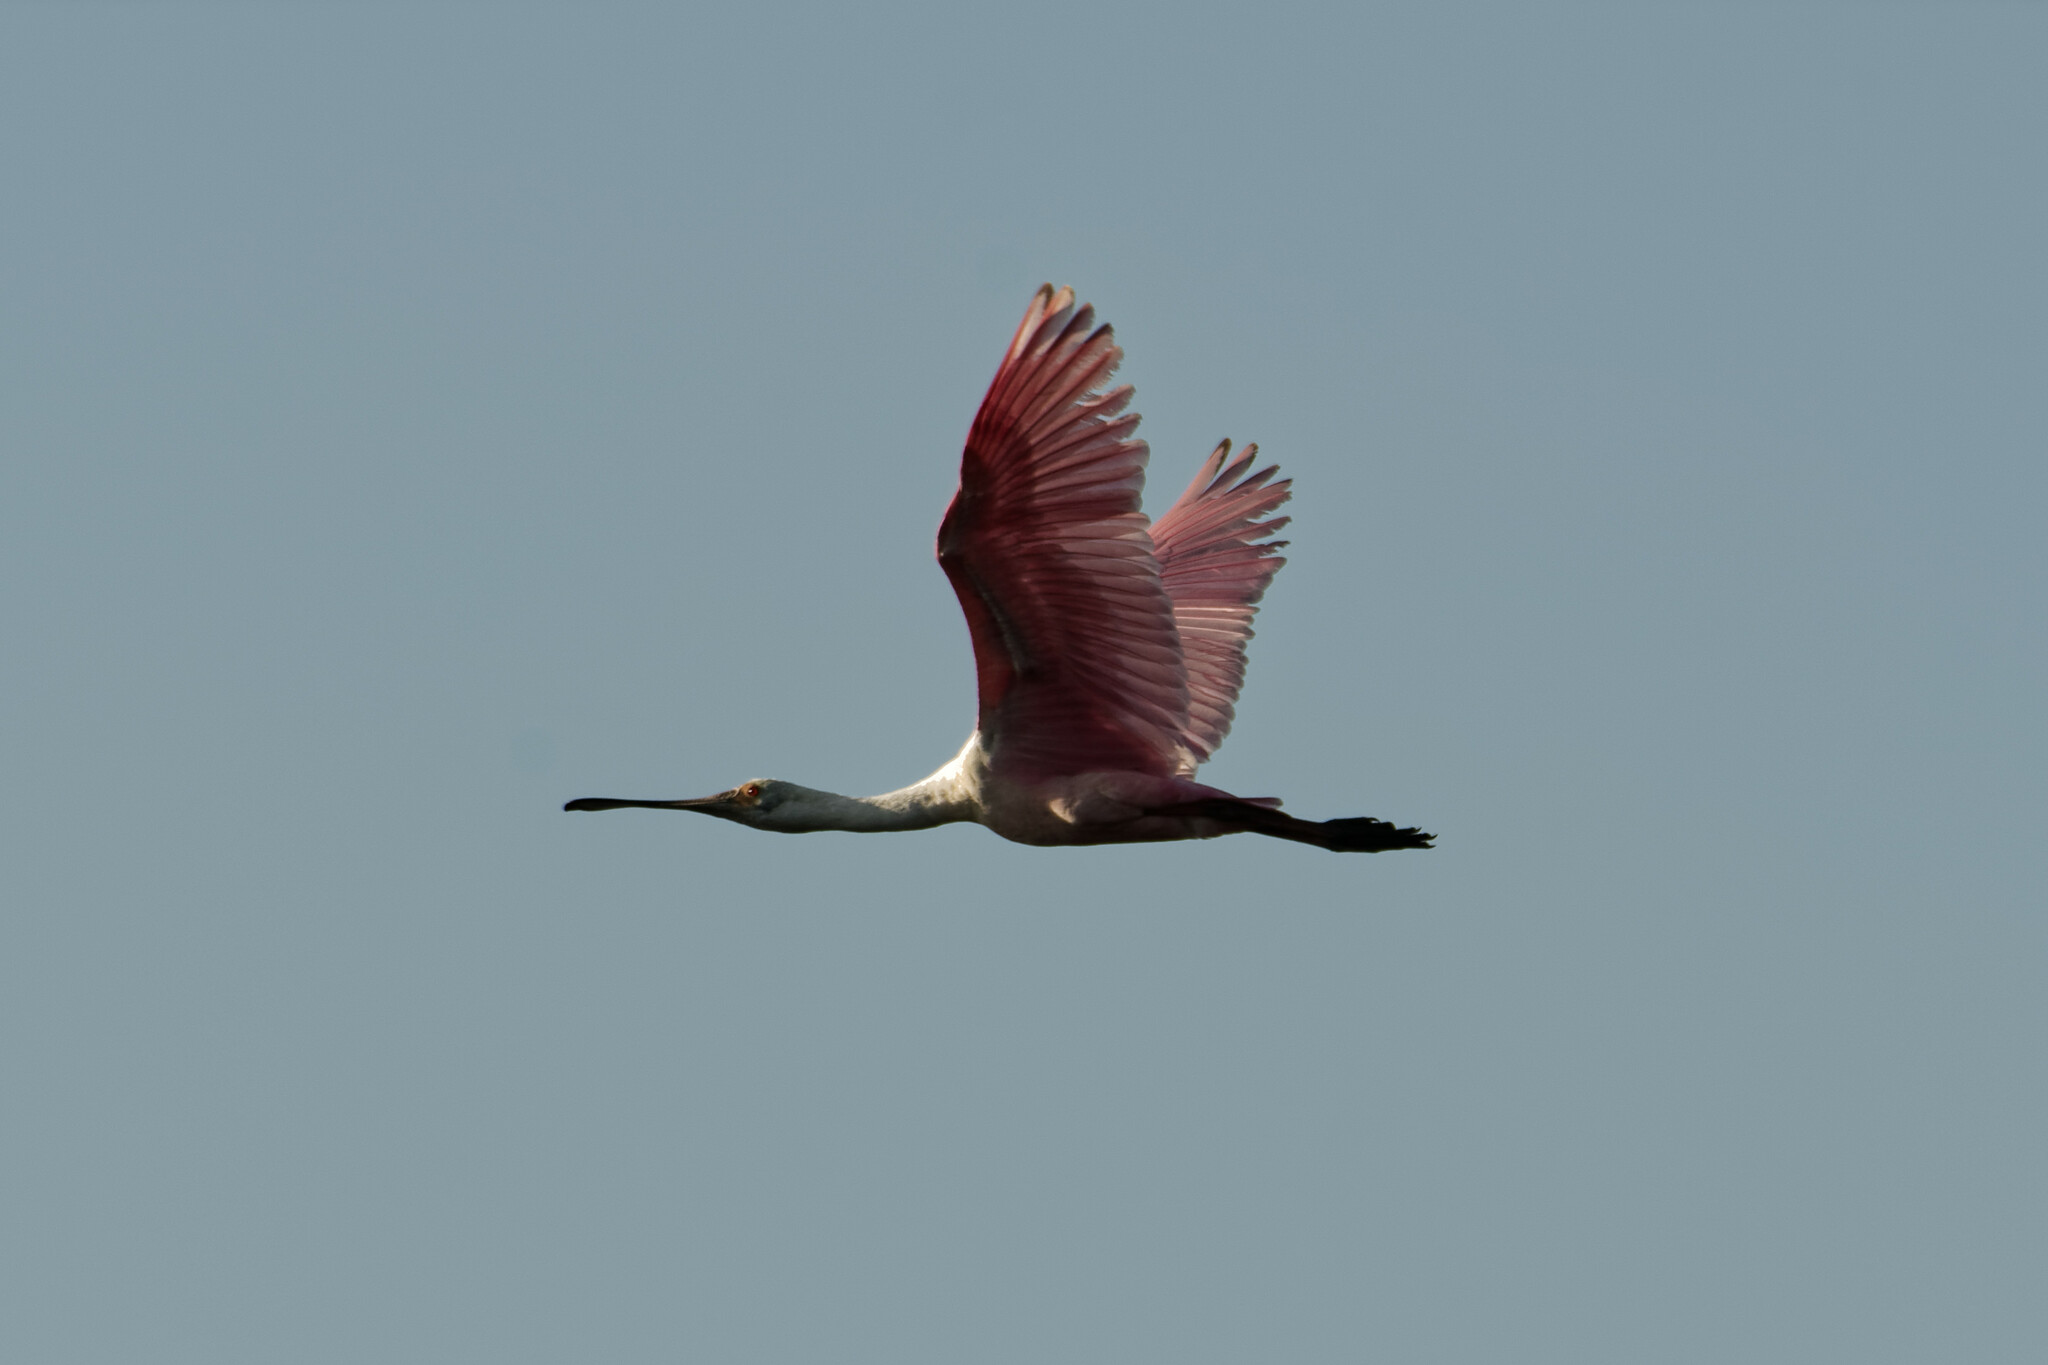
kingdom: Animalia
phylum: Chordata
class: Aves
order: Pelecaniformes
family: Threskiornithidae
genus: Platalea
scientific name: Platalea ajaja
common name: Roseate spoonbill
